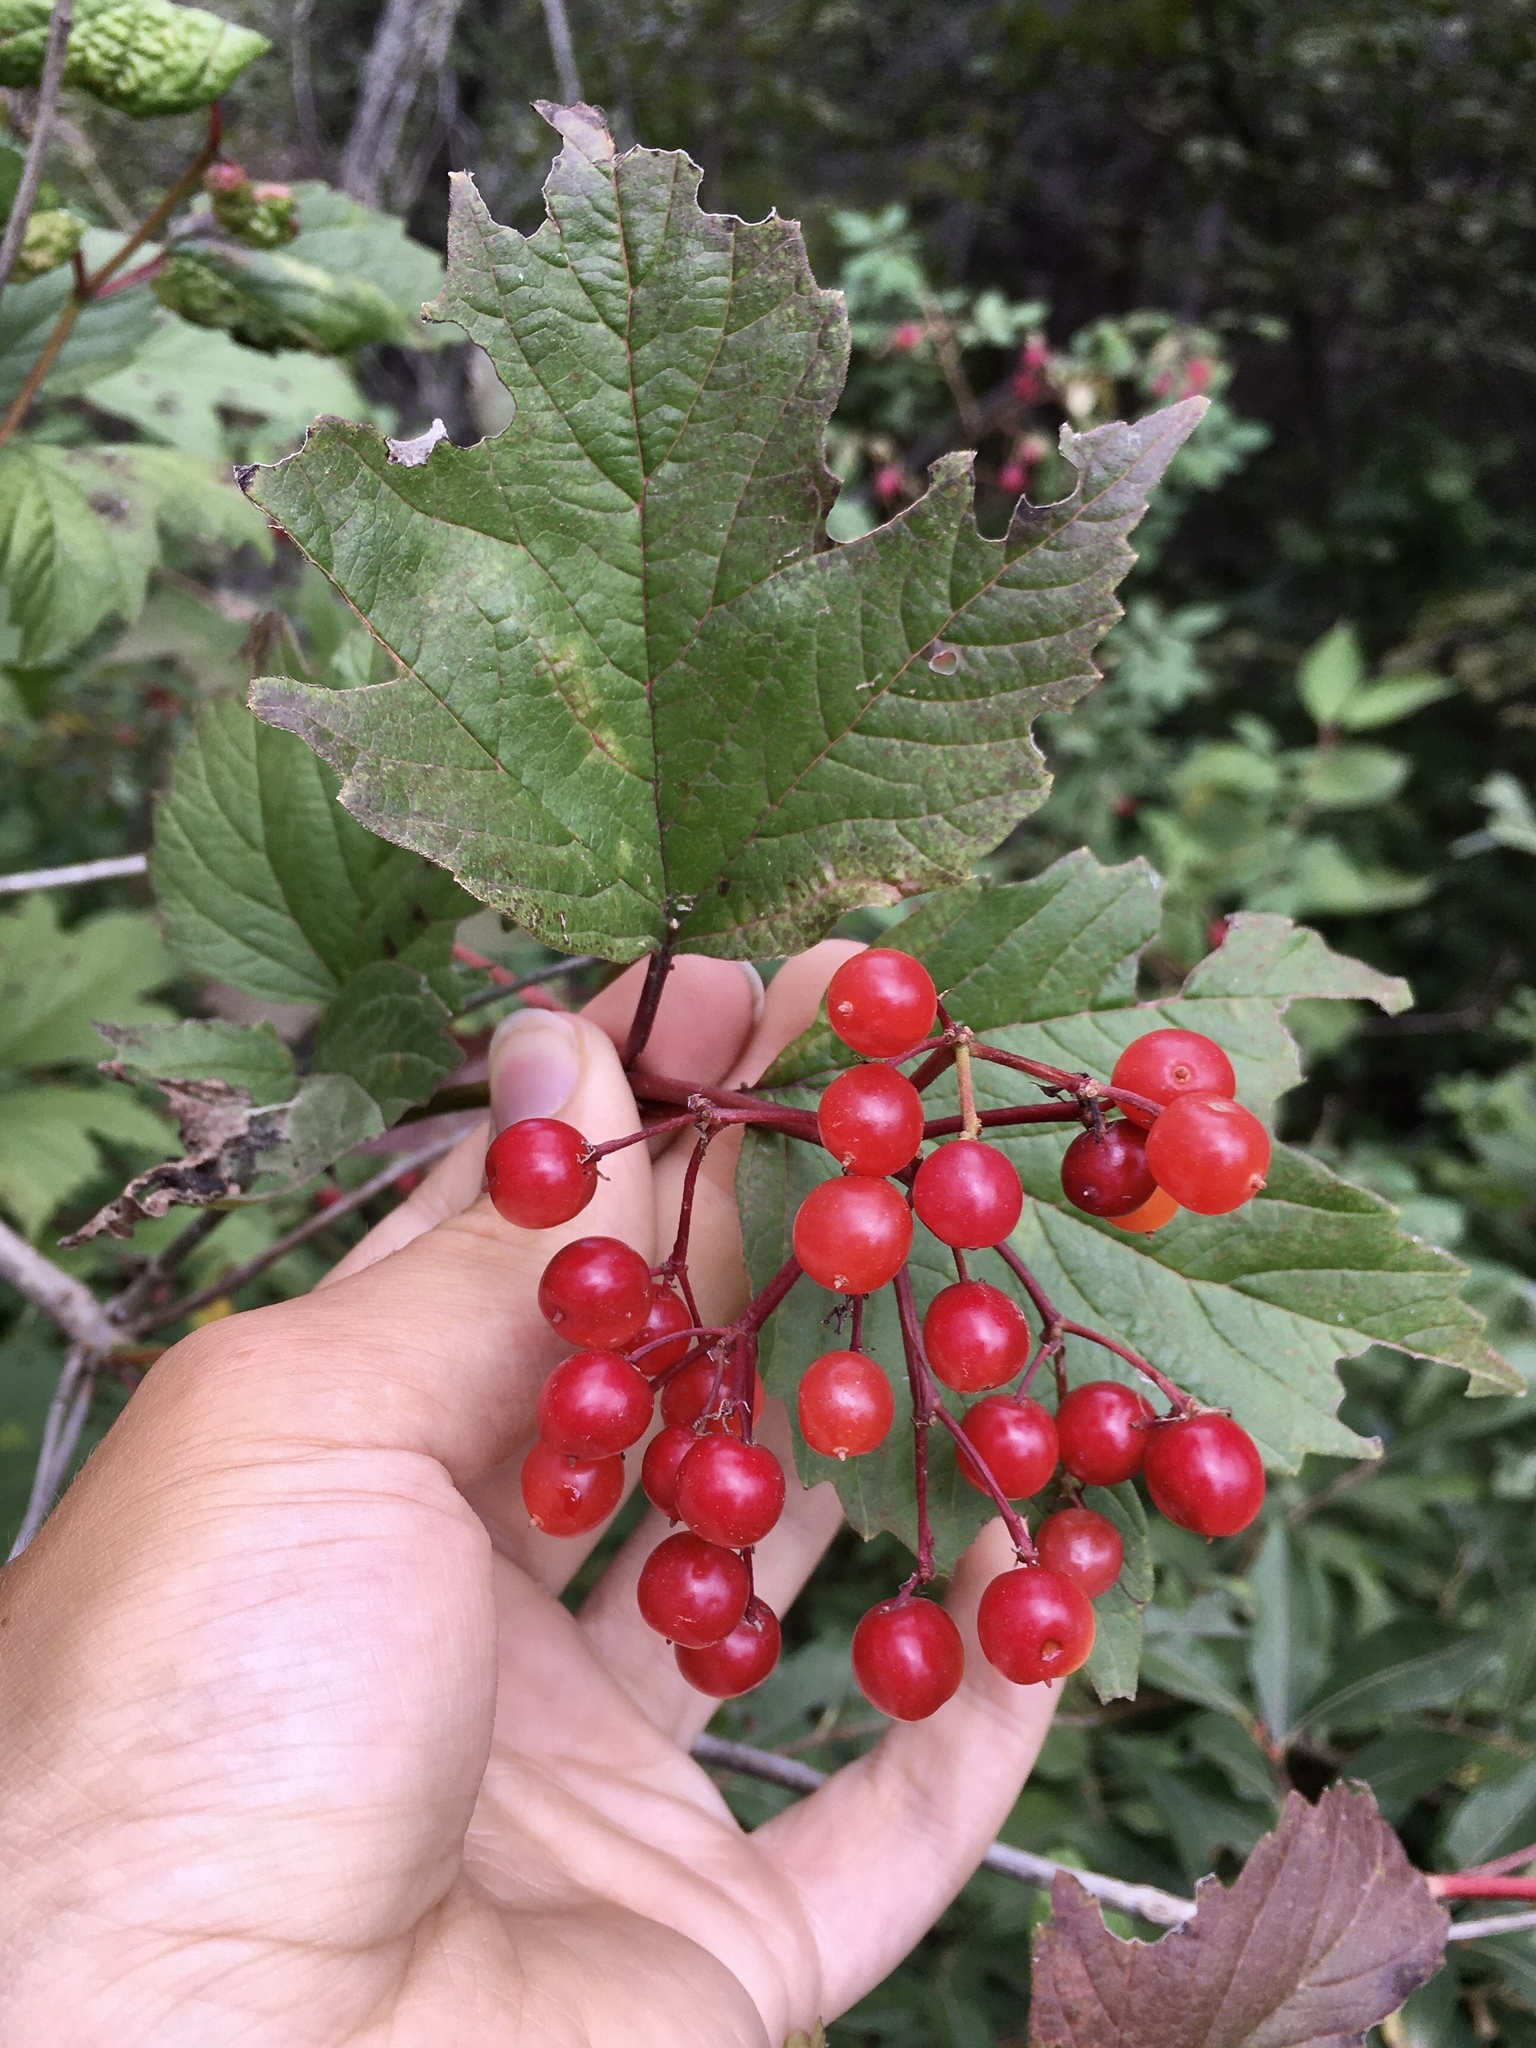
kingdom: Plantae
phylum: Tracheophyta
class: Magnoliopsida
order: Dipsacales
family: Viburnaceae
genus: Viburnum
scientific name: Viburnum trilobum
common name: American cranberrybush
